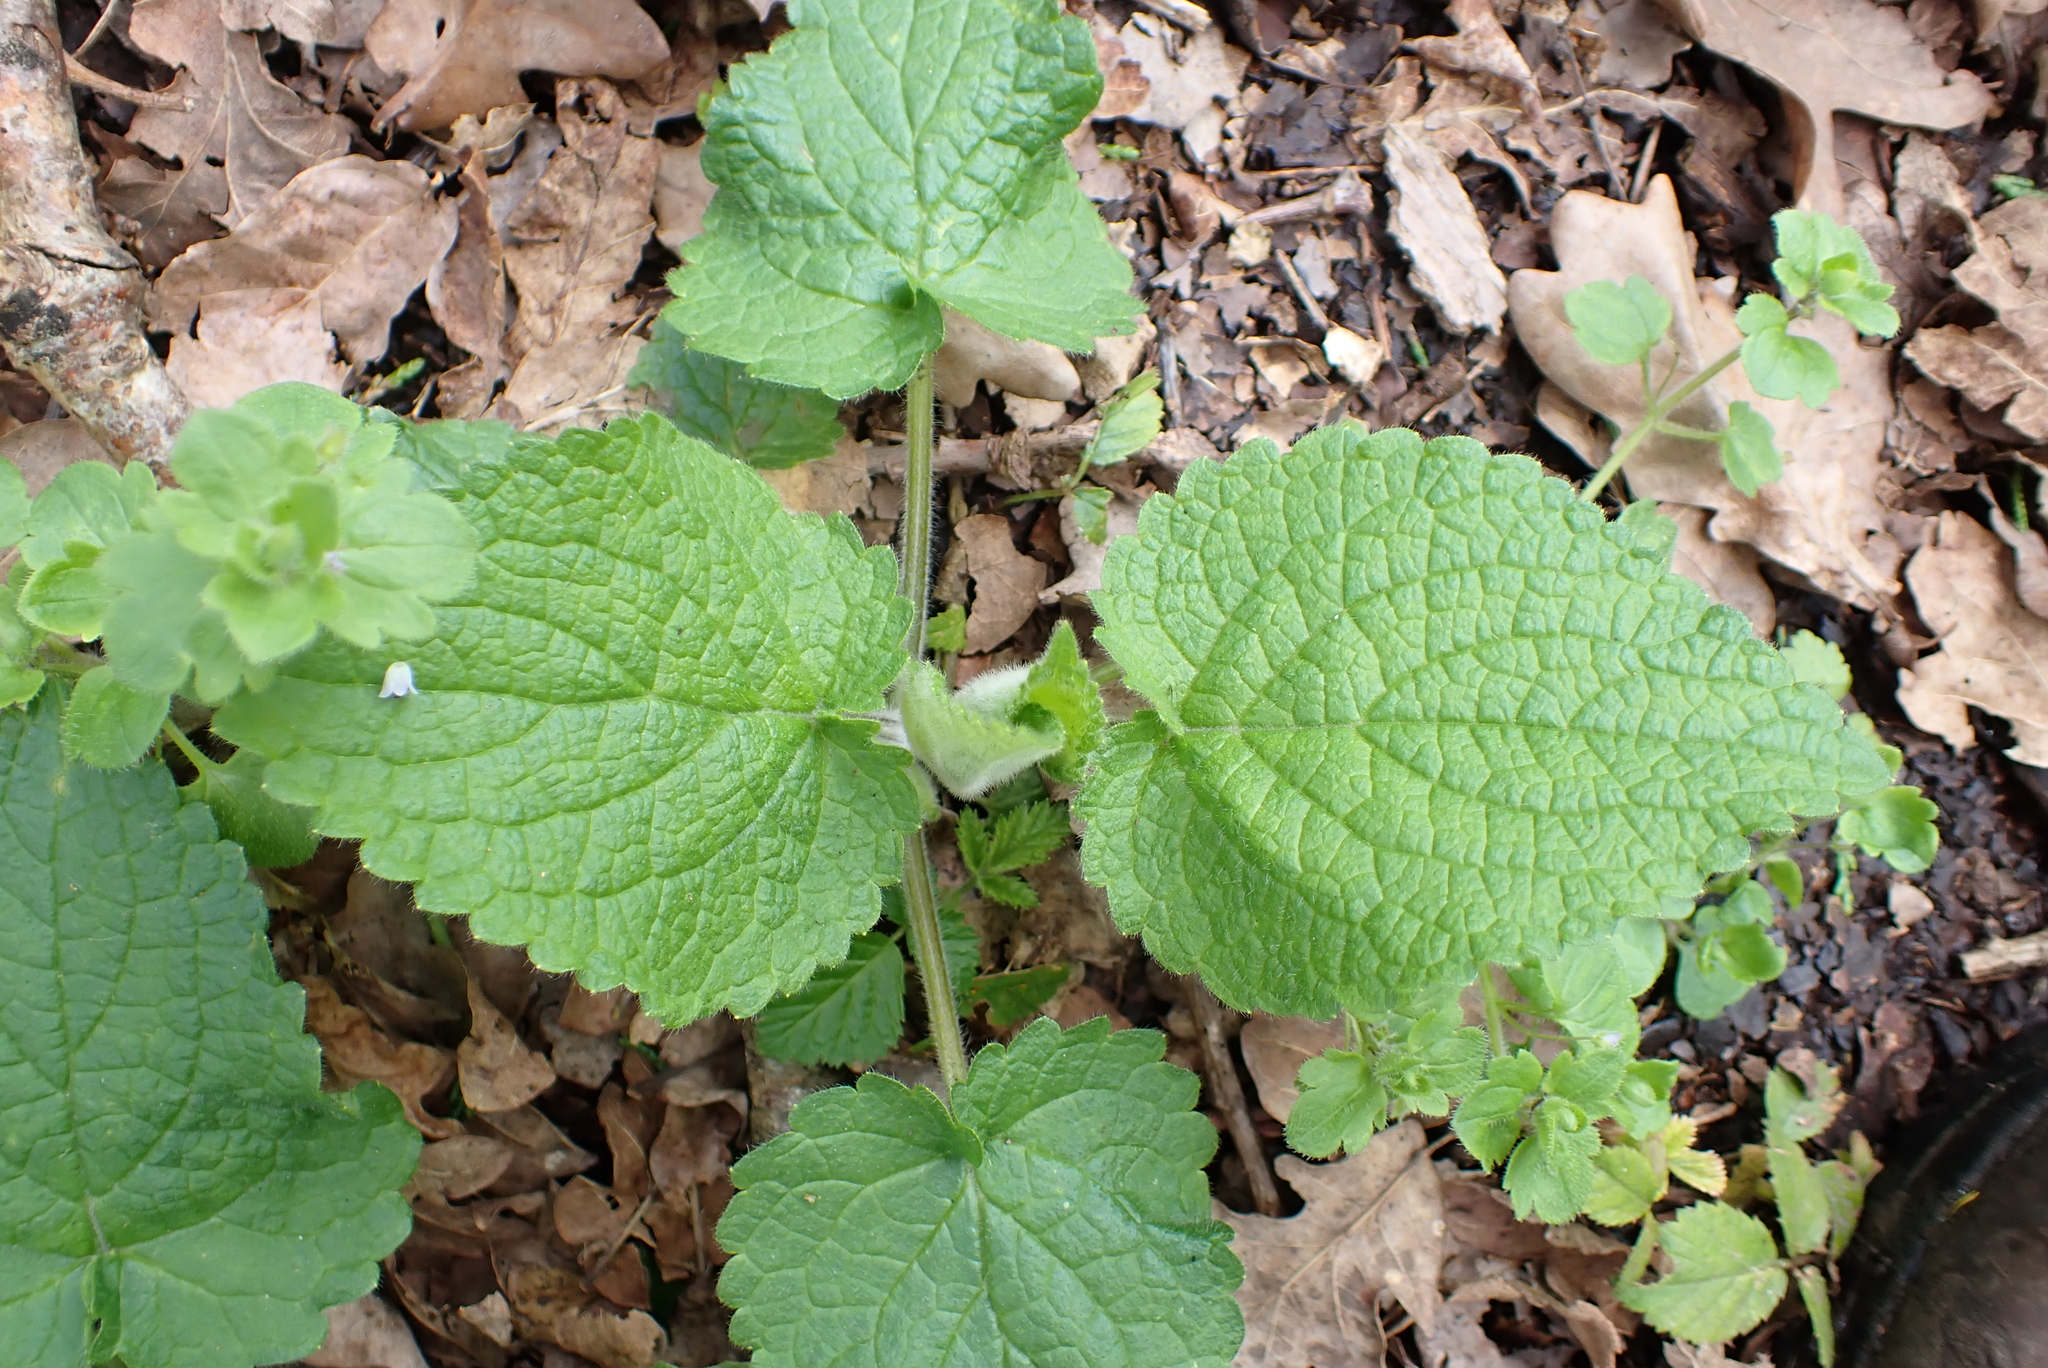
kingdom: Plantae
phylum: Tracheophyta
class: Magnoliopsida
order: Lamiales
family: Lamiaceae
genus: Stachys
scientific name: Stachys sylvatica
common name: Hedge woundwort
